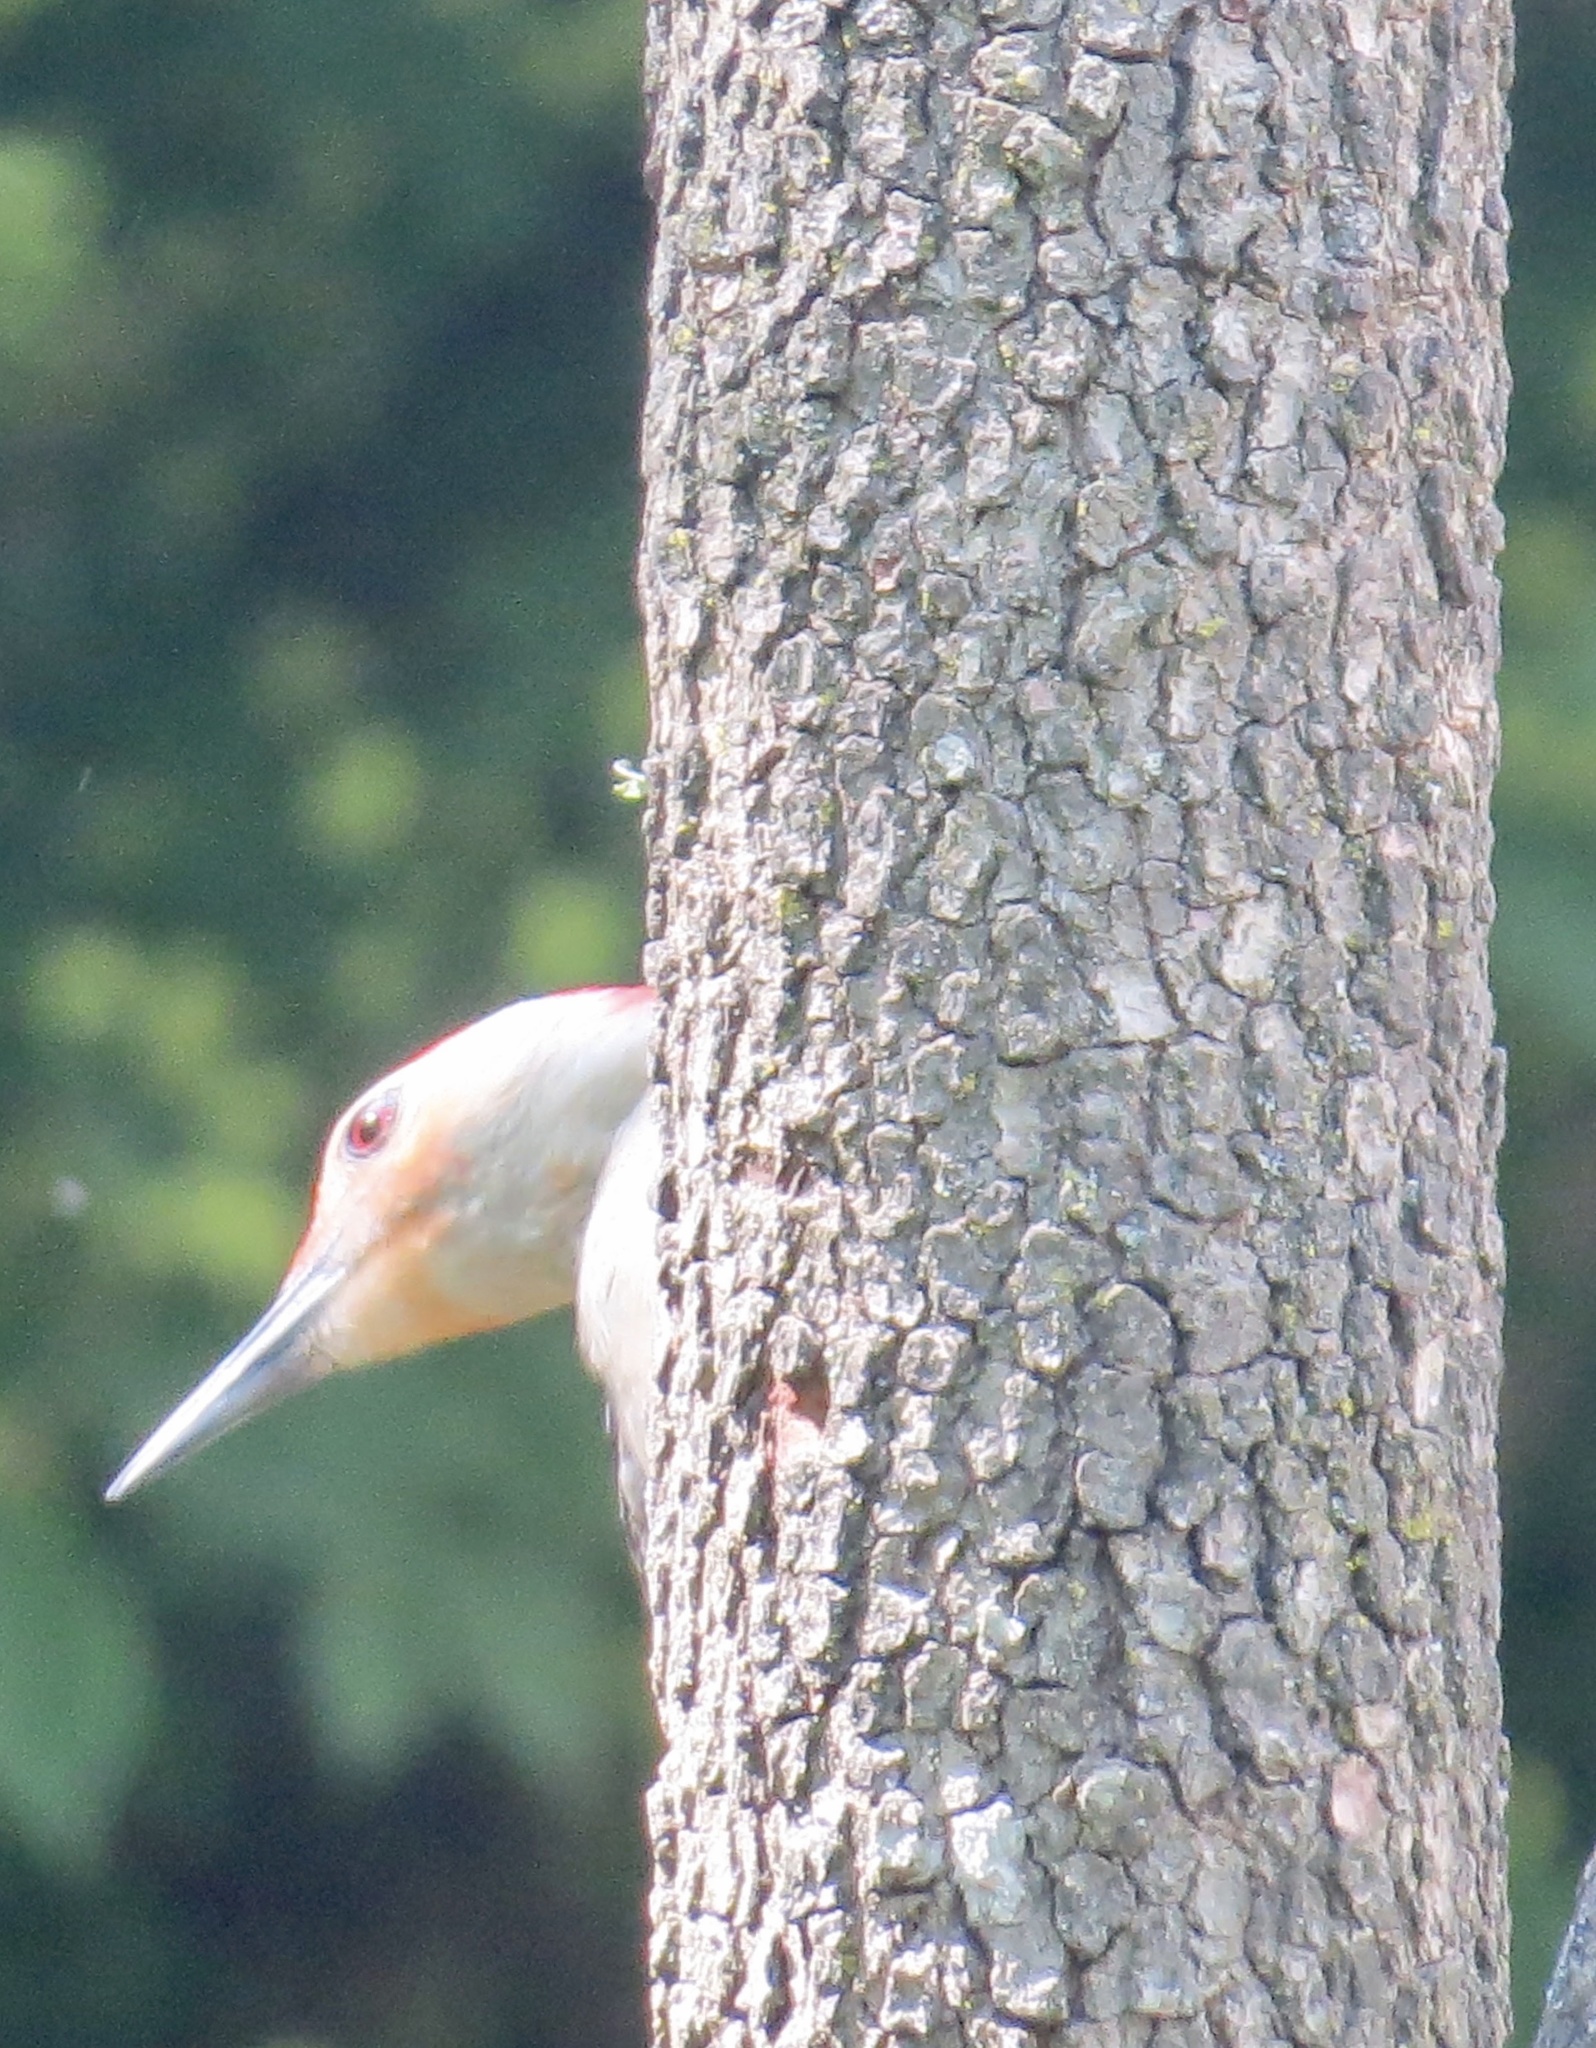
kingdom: Animalia
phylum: Chordata
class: Aves
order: Piciformes
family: Picidae
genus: Melanerpes
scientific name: Melanerpes carolinus
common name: Red-bellied woodpecker
